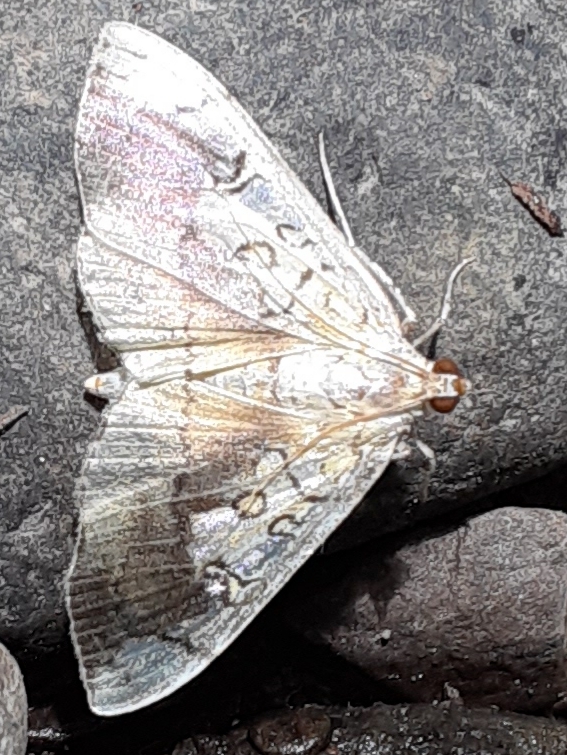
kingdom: Animalia
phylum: Arthropoda
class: Insecta
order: Lepidoptera
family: Crambidae
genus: Pantographa
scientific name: Pantographa limata
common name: Basswood leafroller moth
